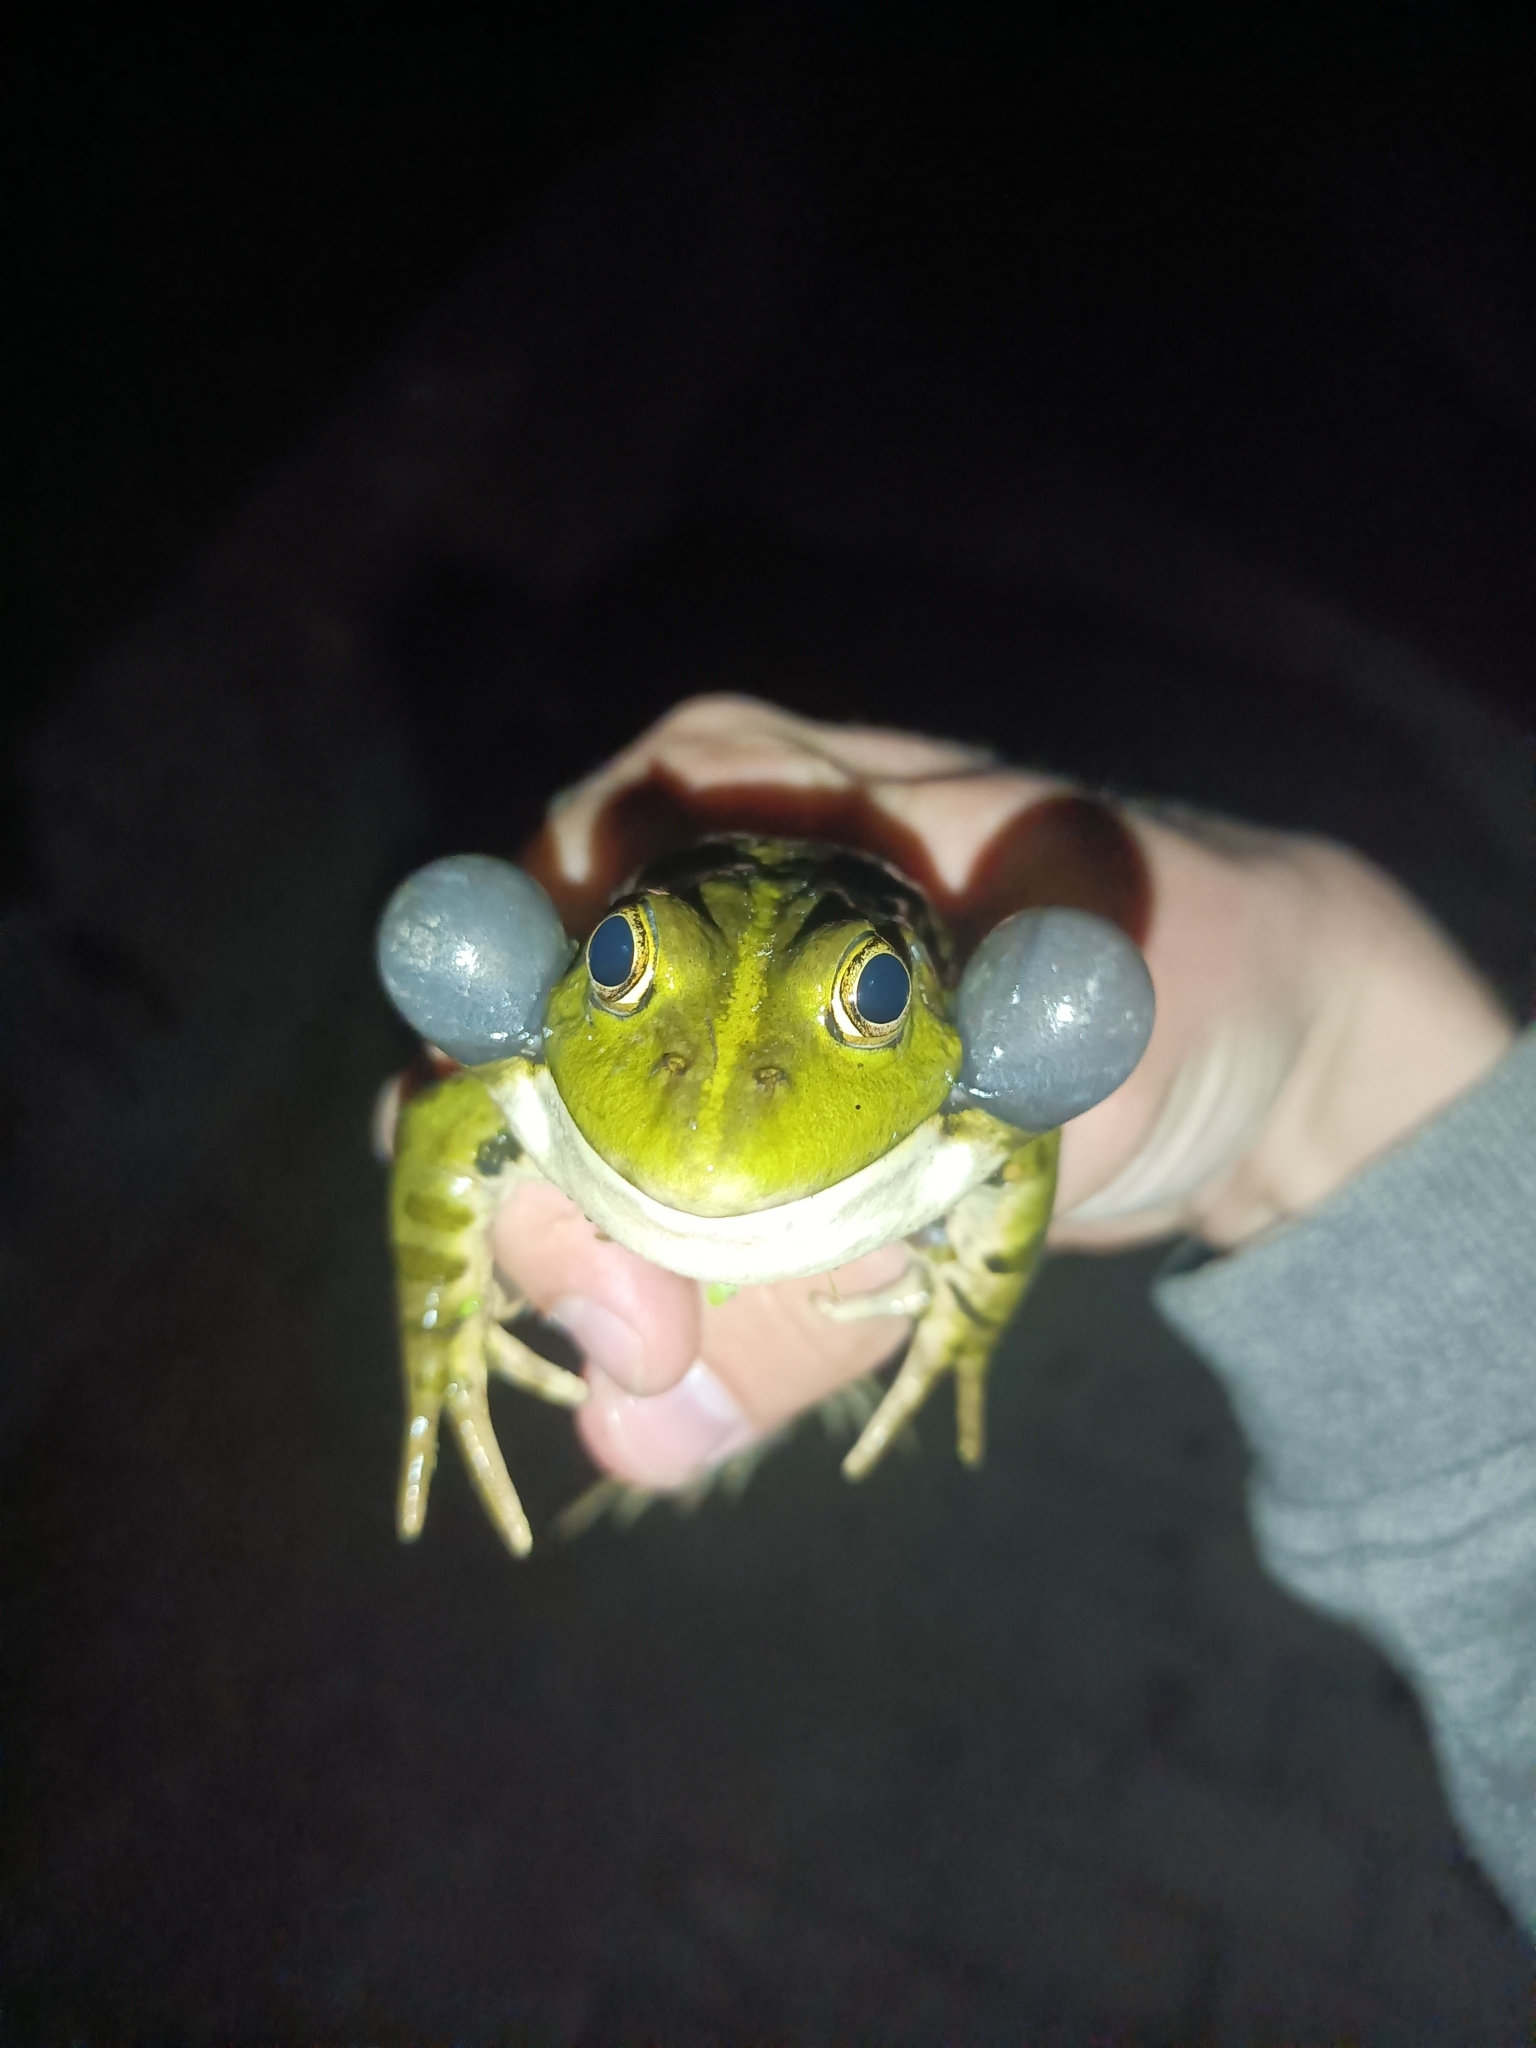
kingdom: Animalia
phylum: Chordata
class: Amphibia
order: Anura
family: Ranidae
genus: Pelophylax
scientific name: Pelophylax ridibundus
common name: Marsh frog
